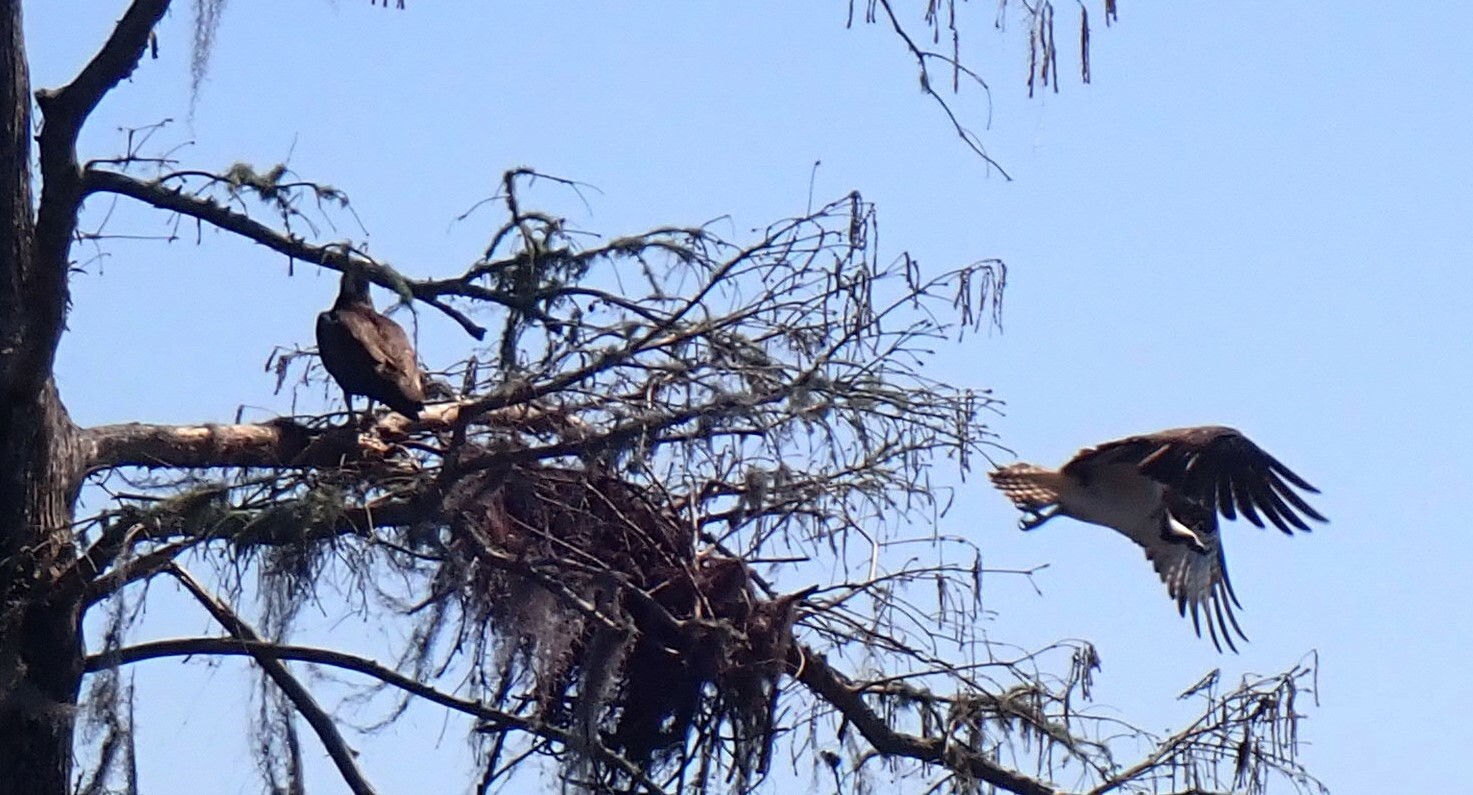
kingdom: Animalia
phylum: Chordata
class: Aves
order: Accipitriformes
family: Pandionidae
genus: Pandion
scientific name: Pandion haliaetus
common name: Osprey
